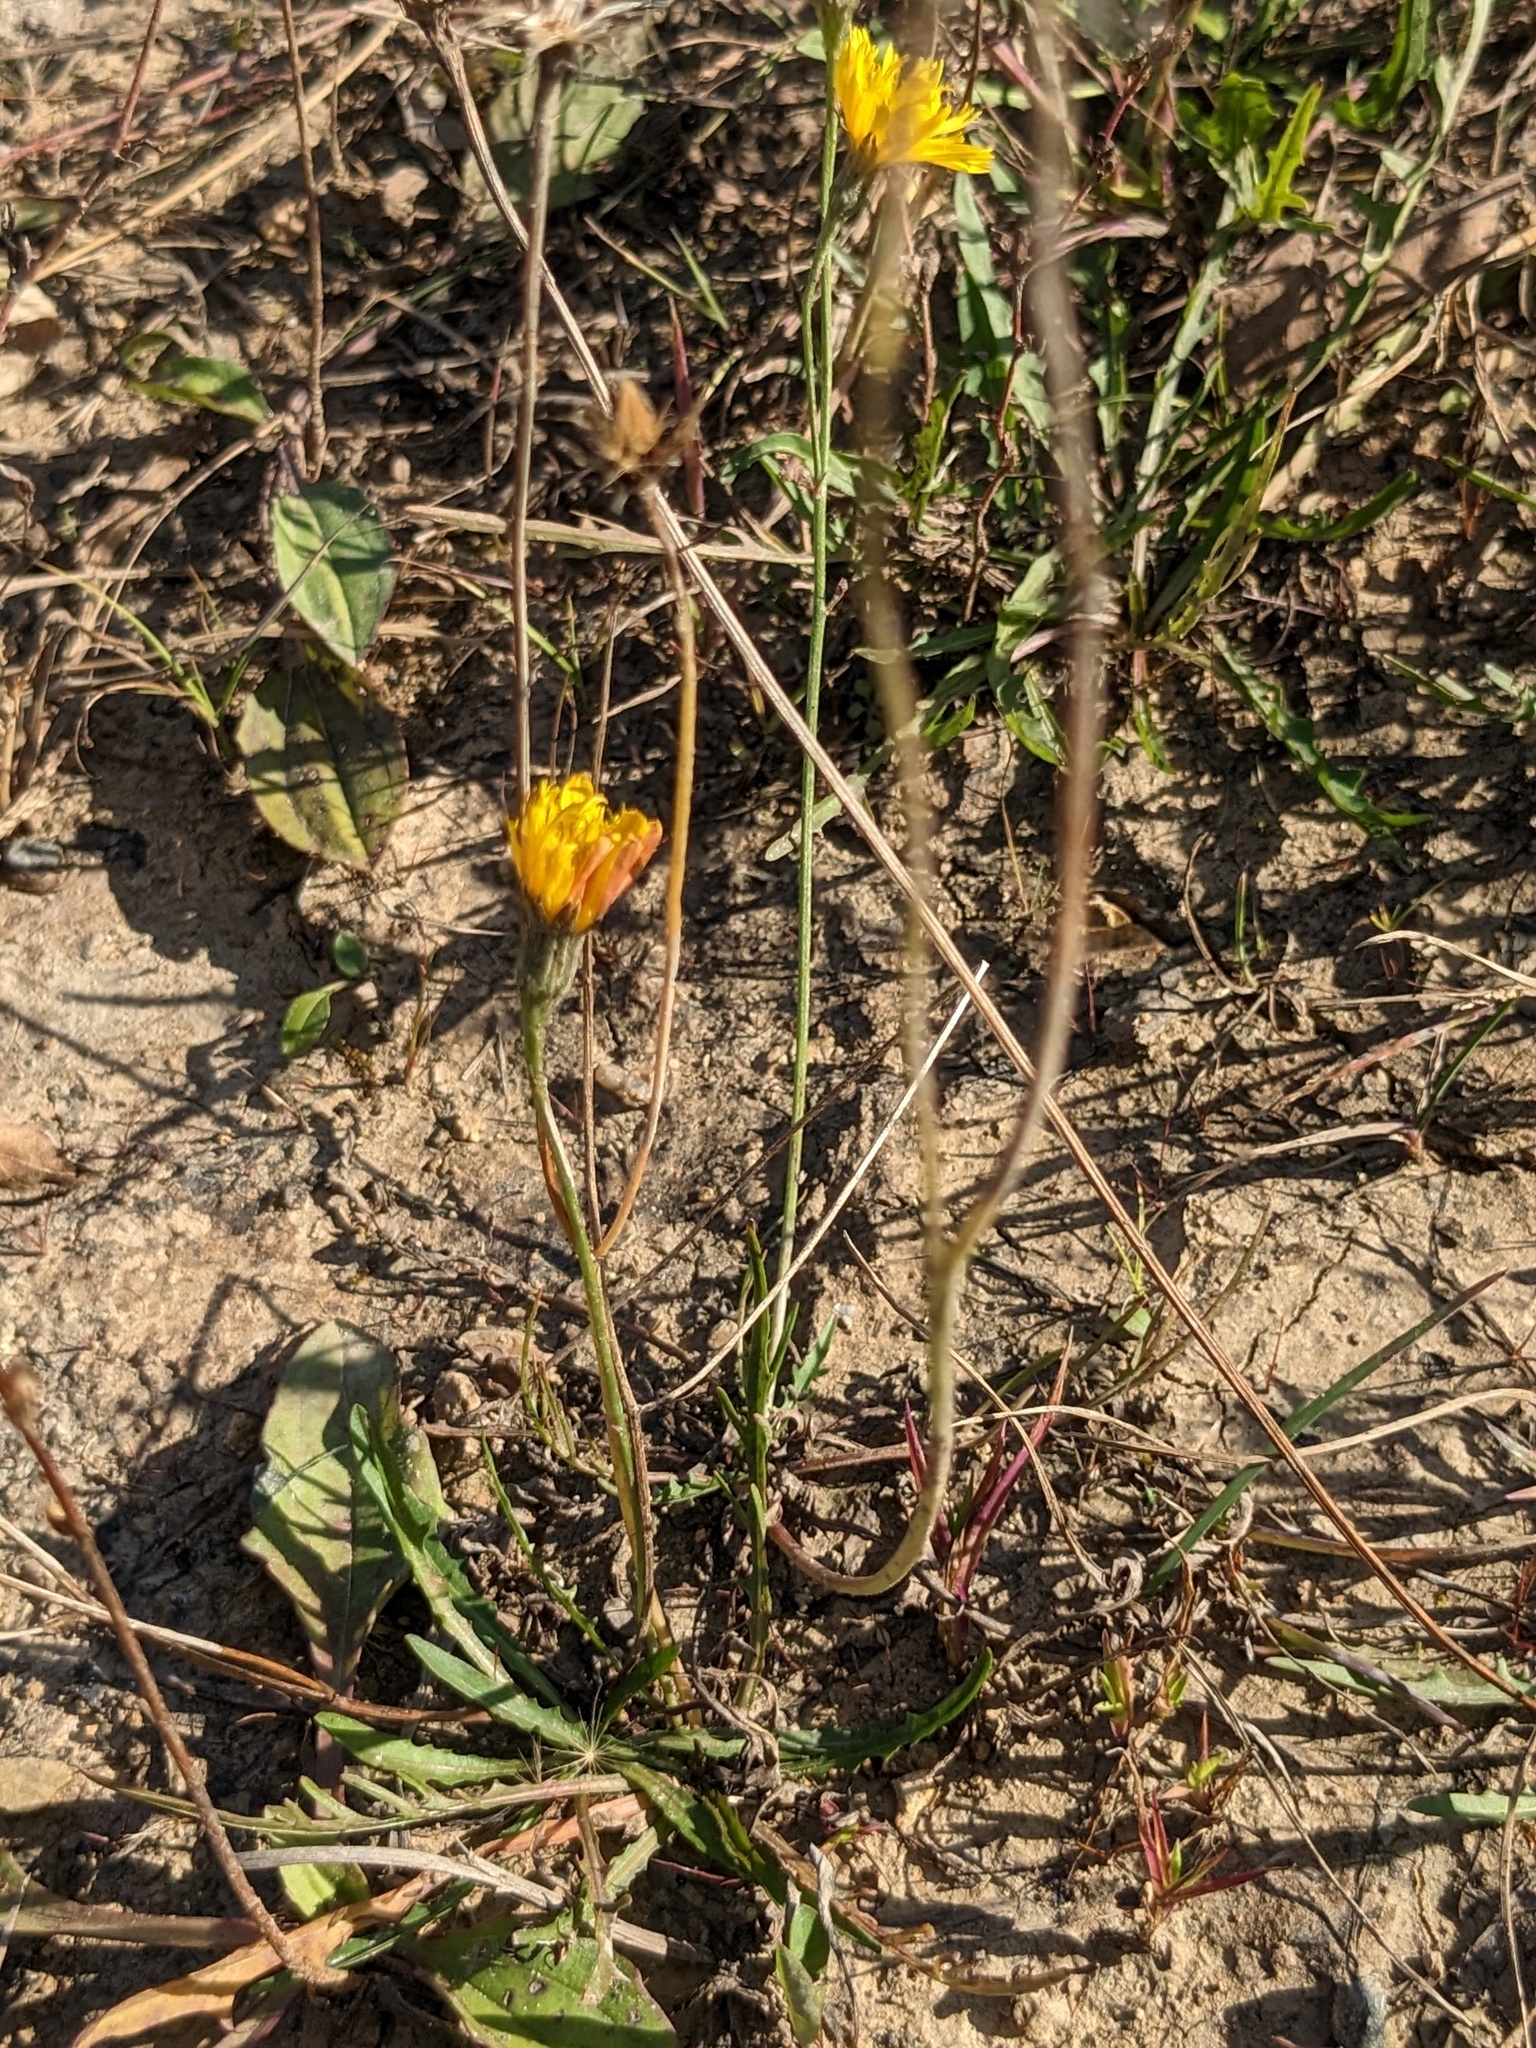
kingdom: Plantae
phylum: Tracheophyta
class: Magnoliopsida
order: Asterales
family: Asteraceae
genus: Scorzoneroides
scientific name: Scorzoneroides autumnalis
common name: Autumn hawkbit
